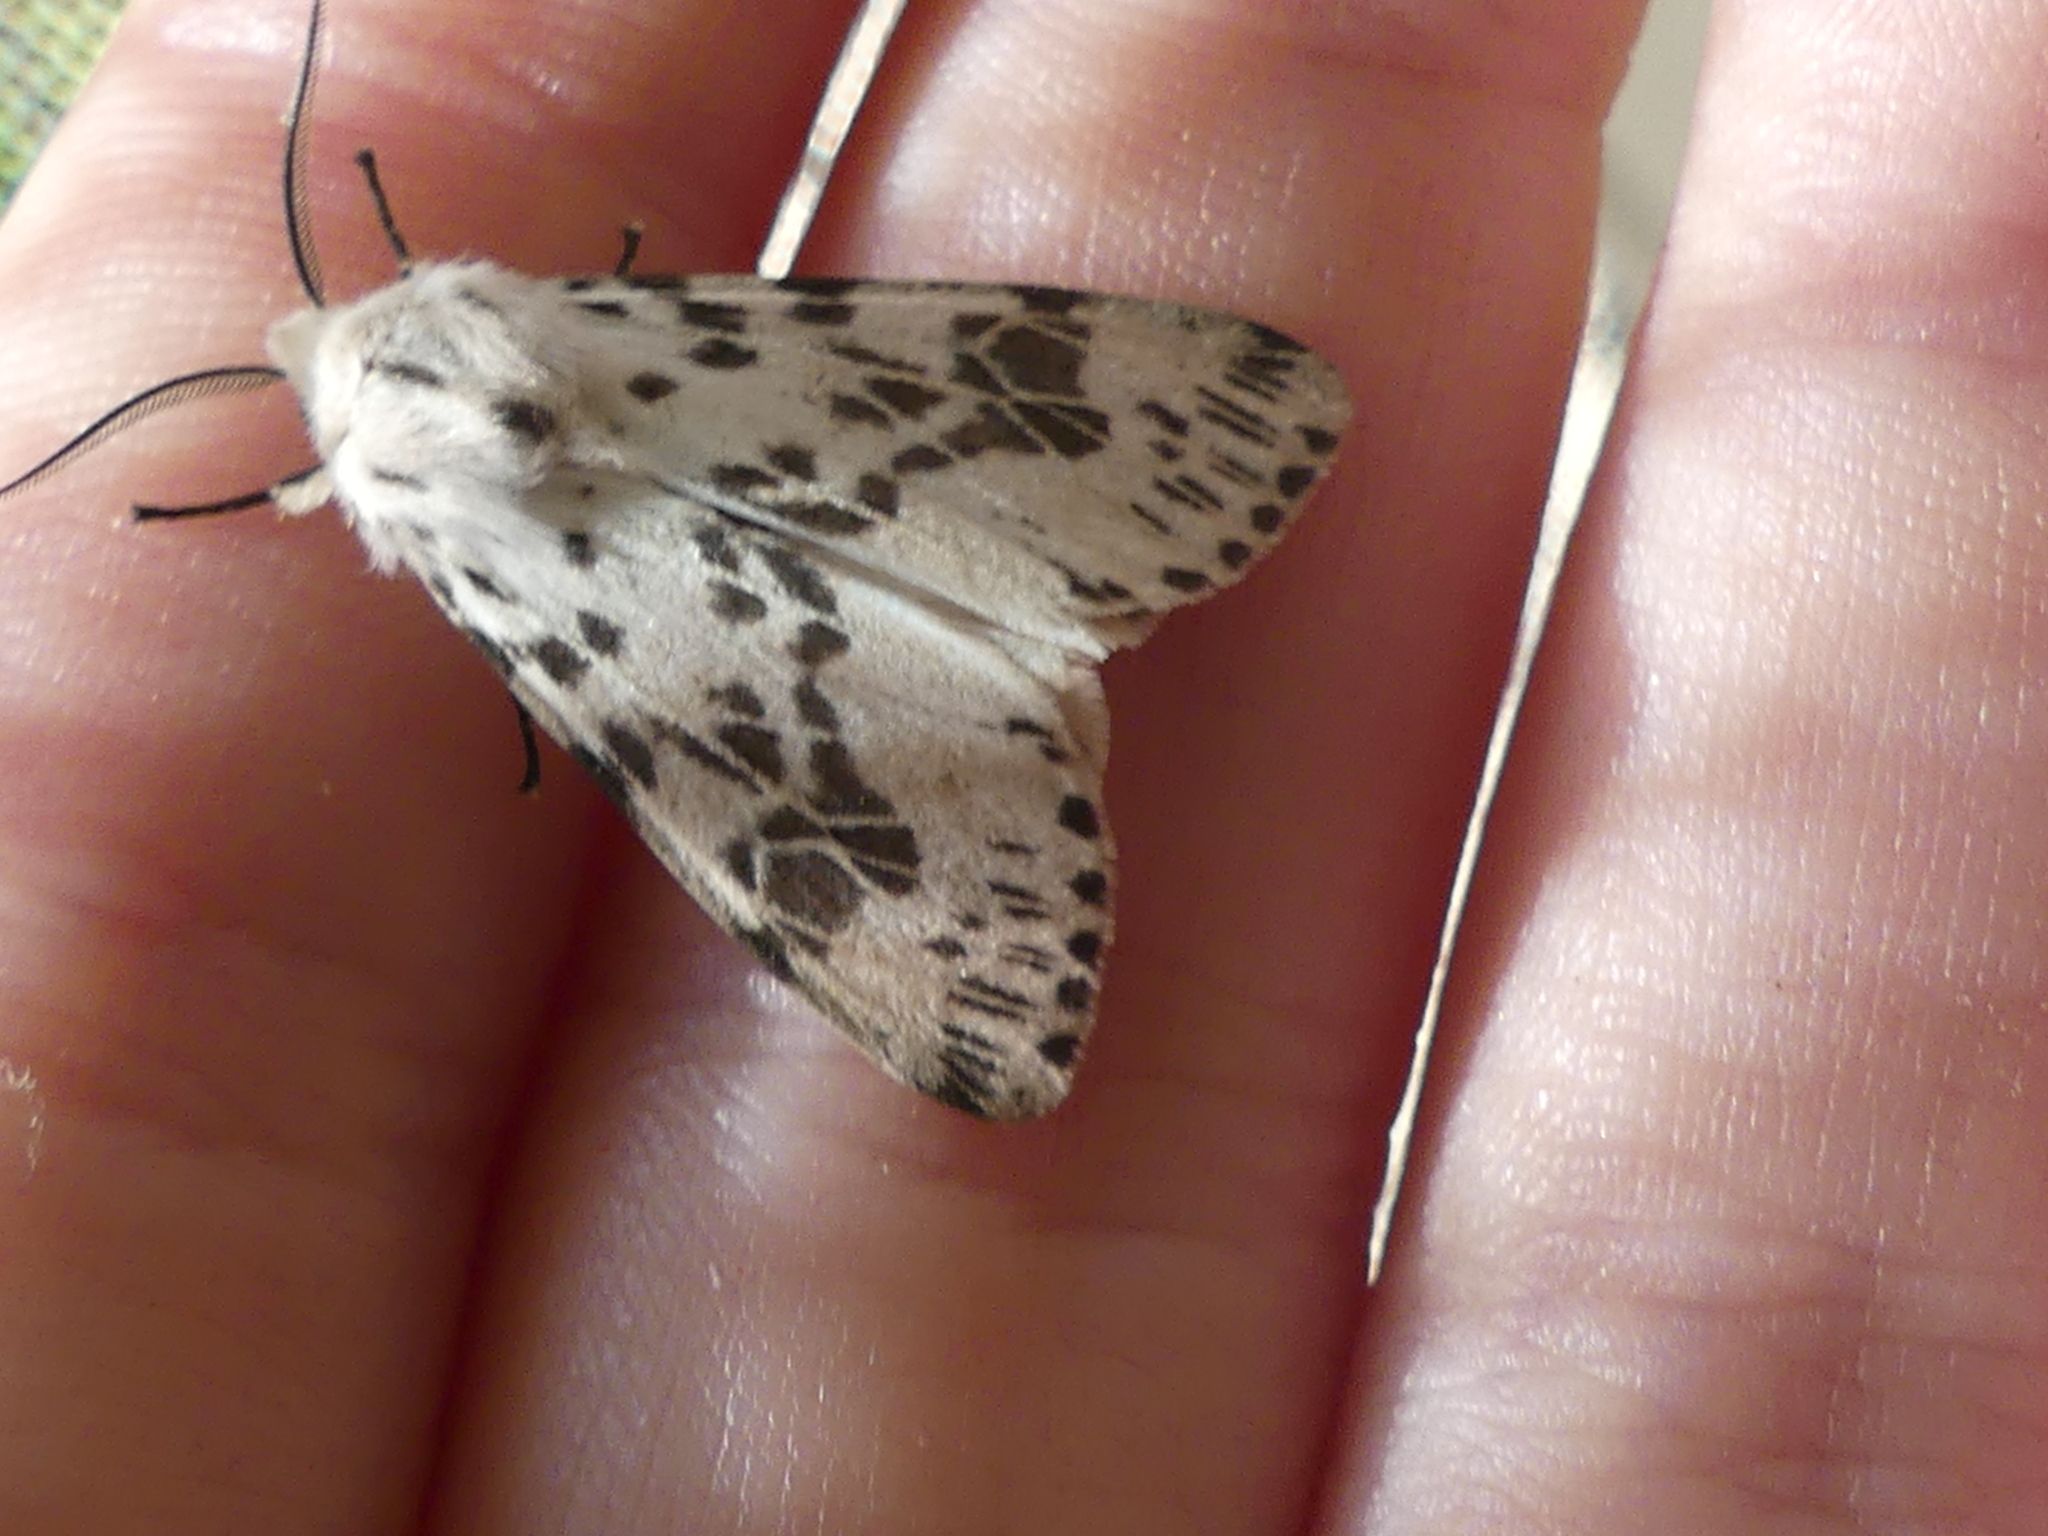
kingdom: Animalia
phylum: Arthropoda
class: Insecta
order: Lepidoptera
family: Erebidae
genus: Hyphantria
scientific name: Hyphantria cunea
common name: American white moth
